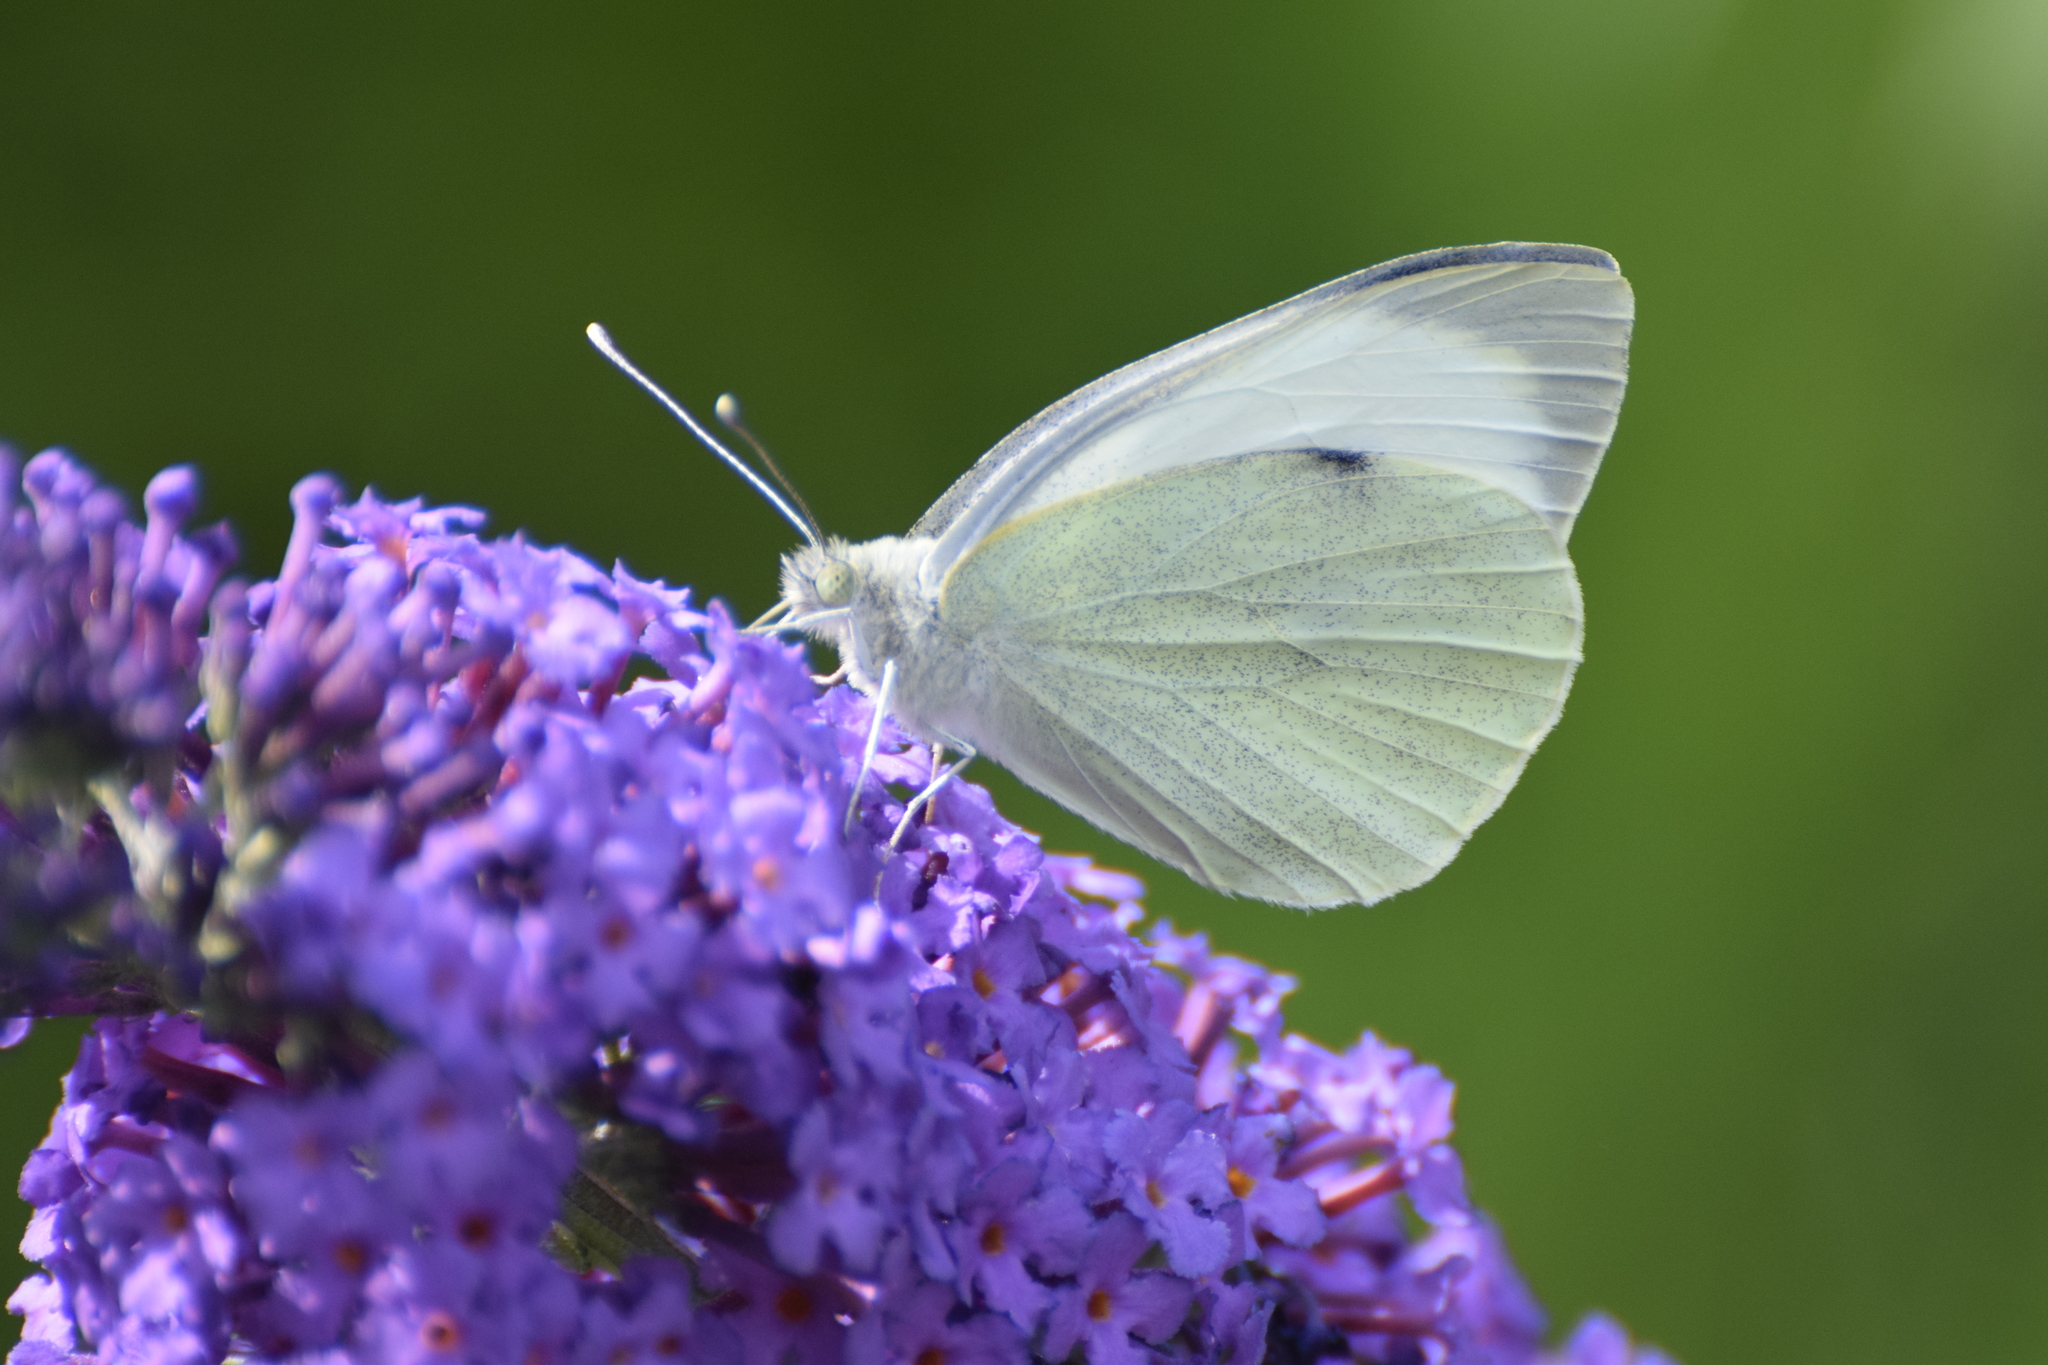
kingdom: Animalia
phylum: Arthropoda
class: Insecta
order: Lepidoptera
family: Pieridae
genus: Pieris
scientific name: Pieris brassicae
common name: Large white
